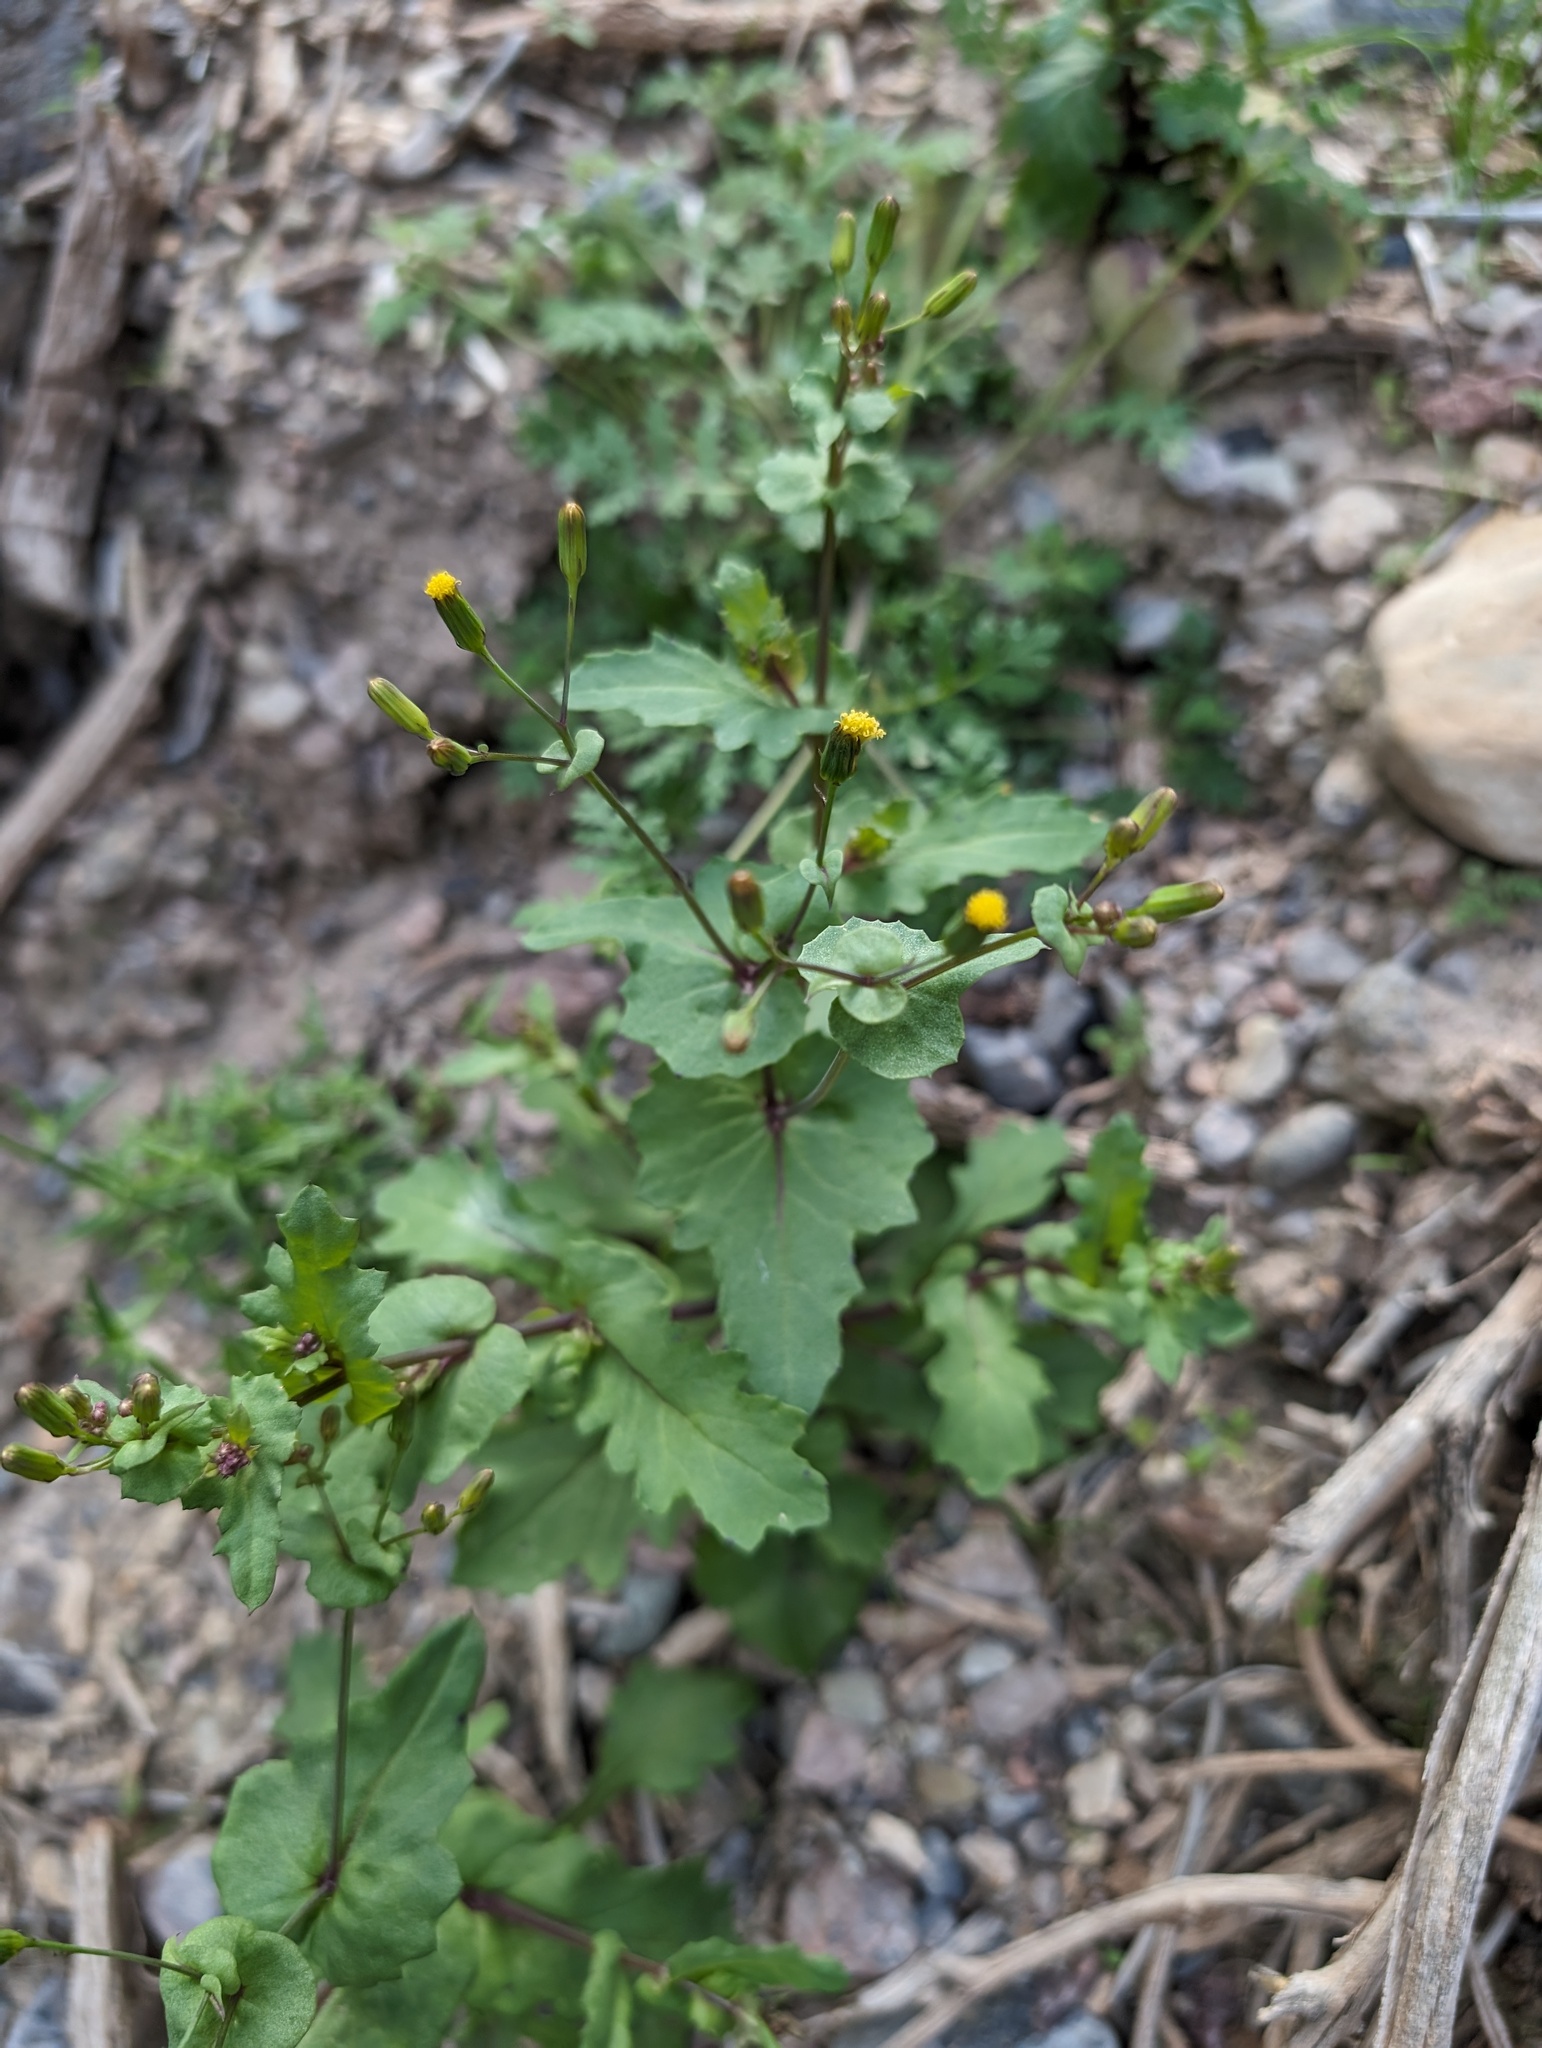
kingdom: Plantae
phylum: Tracheophyta
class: Magnoliopsida
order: Asterales
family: Asteraceae
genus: Senecio
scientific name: Senecio mohavensis
